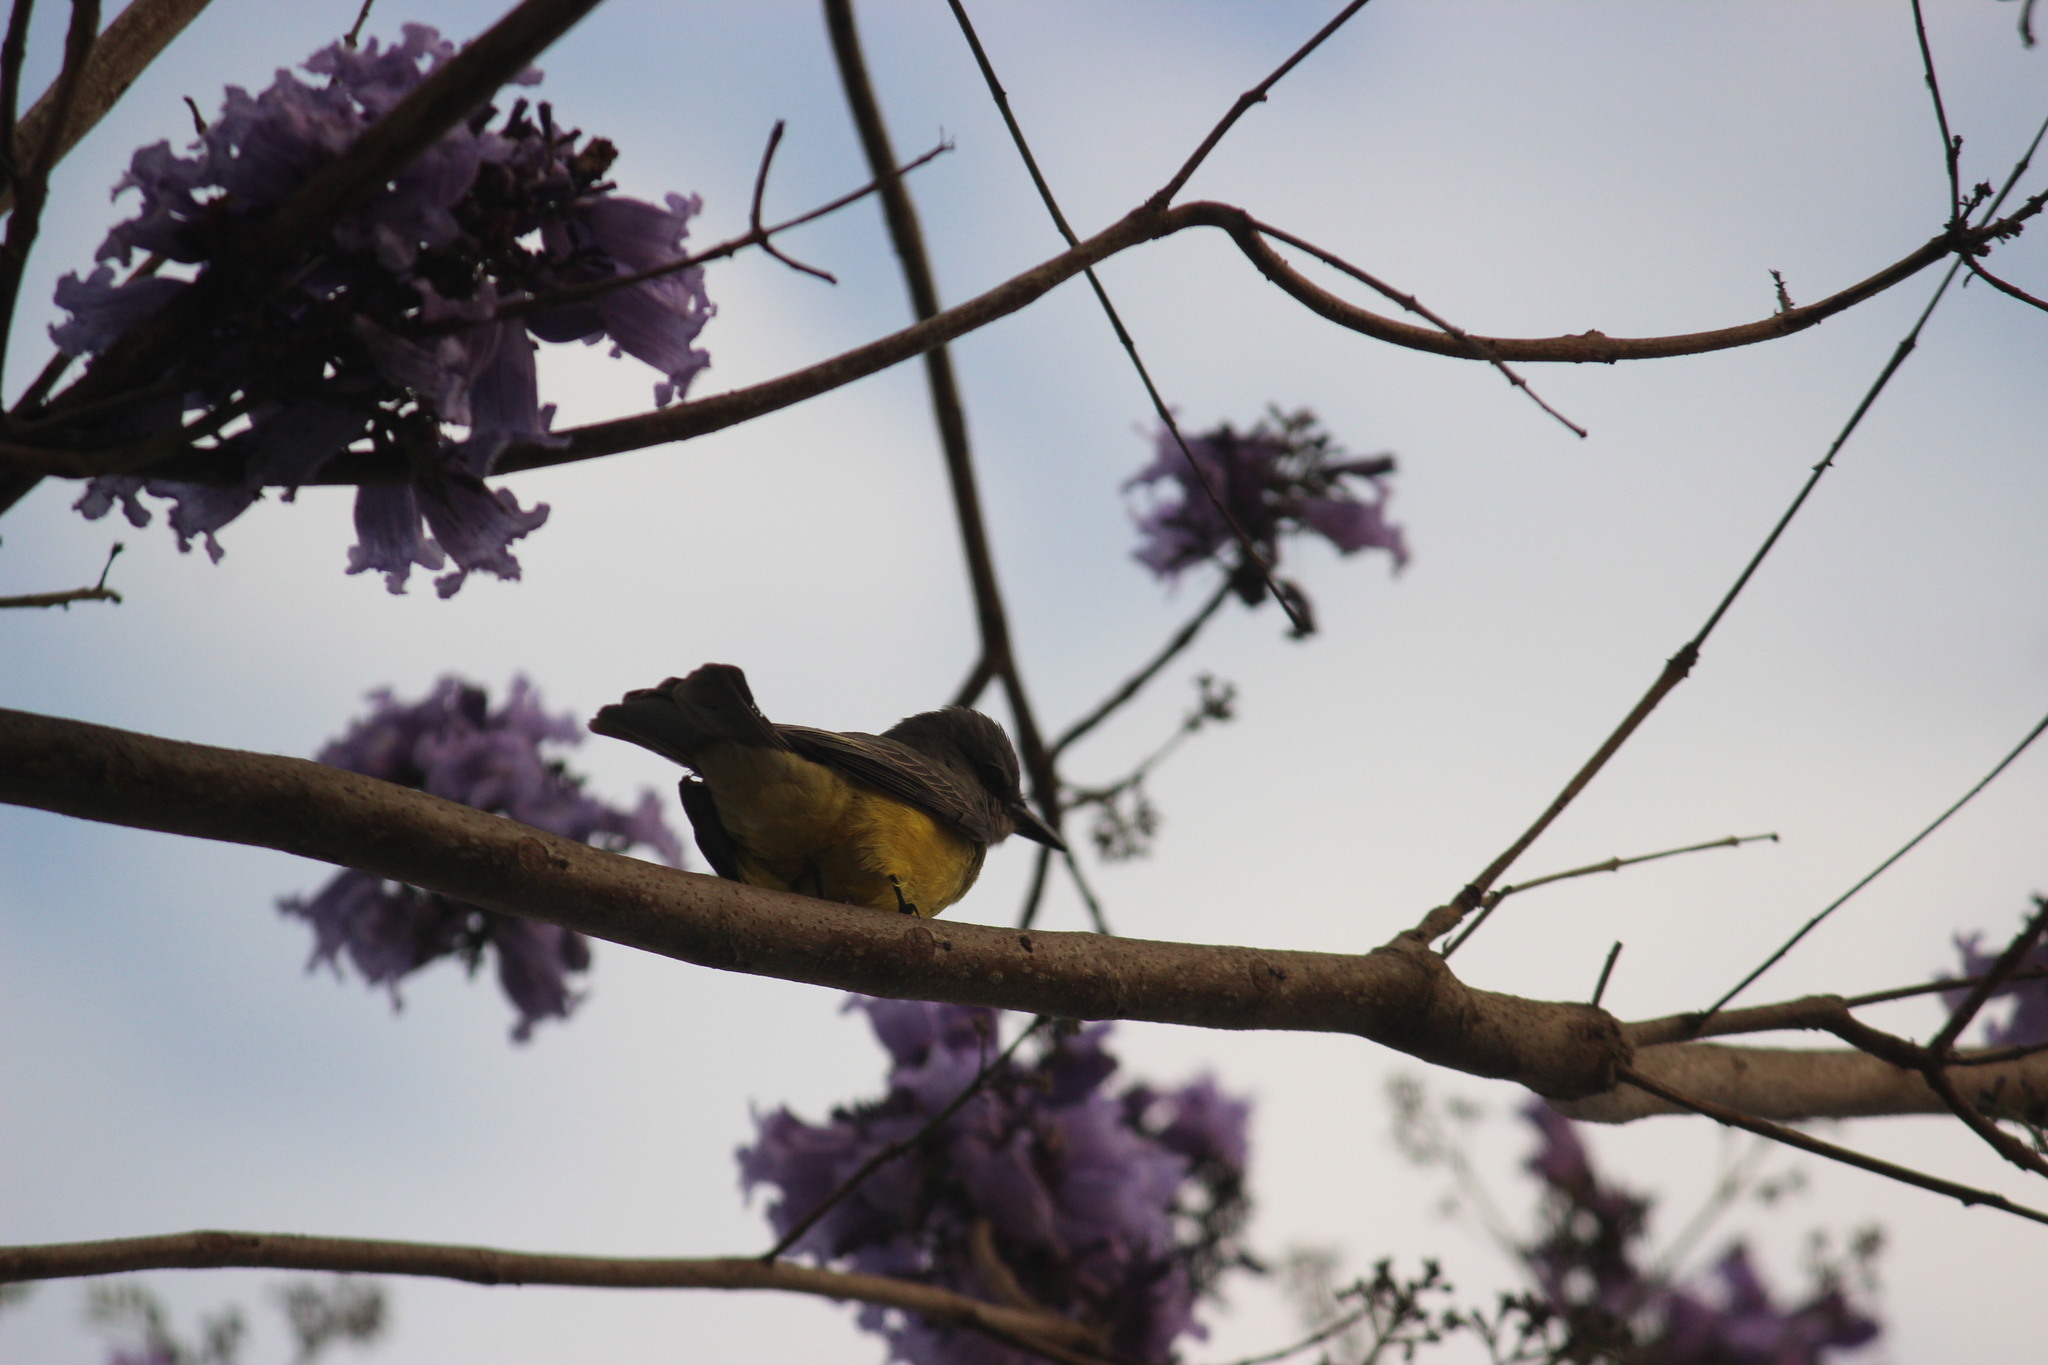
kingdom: Animalia
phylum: Chordata
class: Aves
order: Passeriformes
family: Tyrannidae
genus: Tyrannus
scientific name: Tyrannus melancholicus
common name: Tropical kingbird
